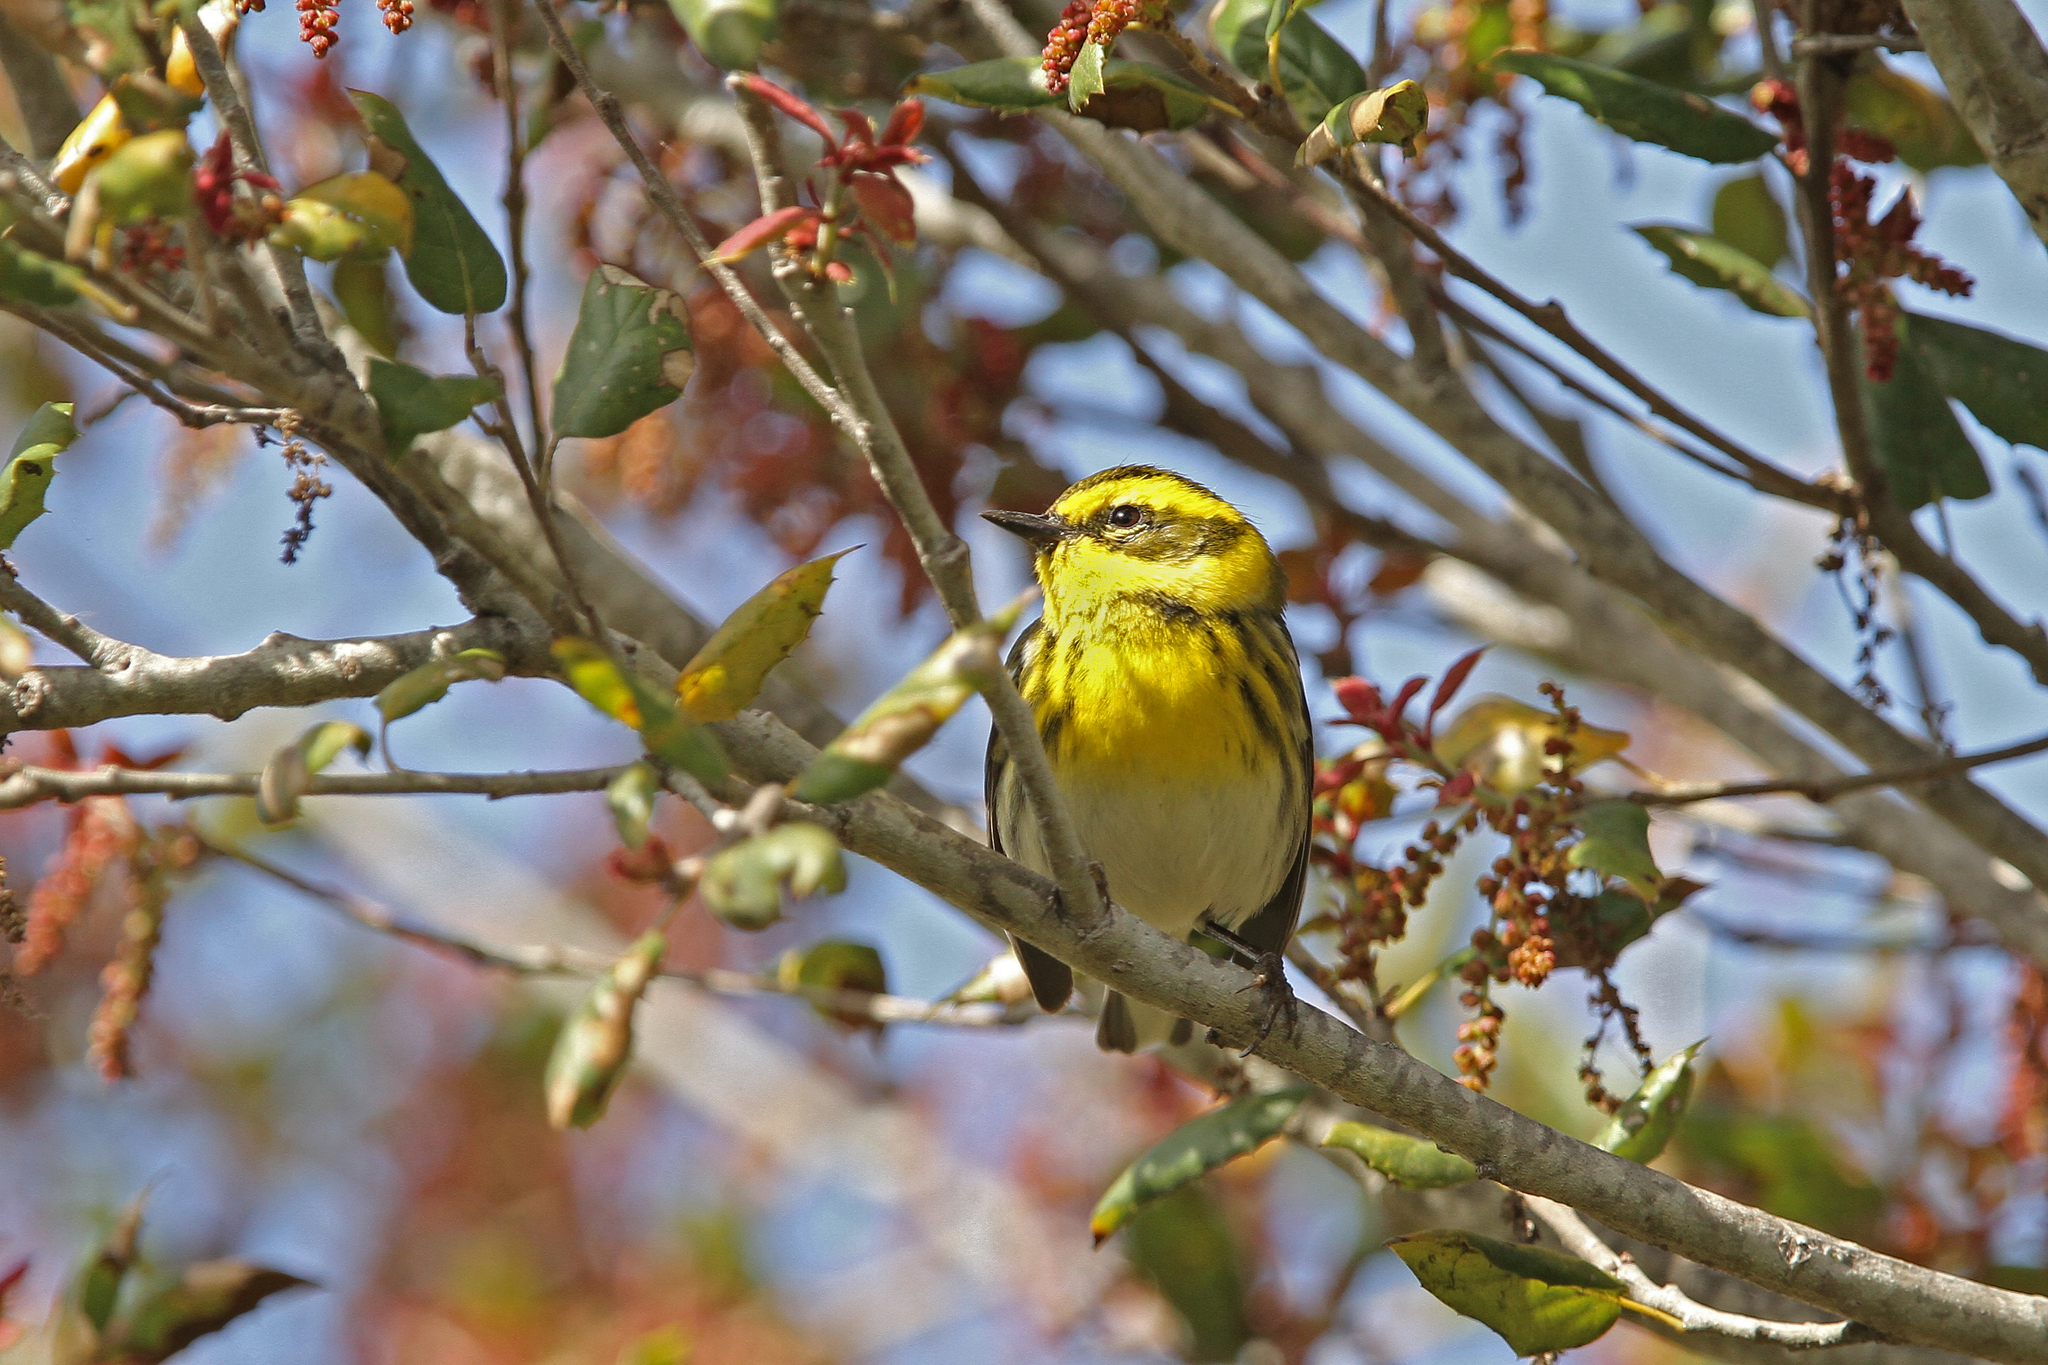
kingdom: Animalia
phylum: Chordata
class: Aves
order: Passeriformes
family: Parulidae
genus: Setophaga
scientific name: Setophaga townsendi
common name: Townsend's warbler
